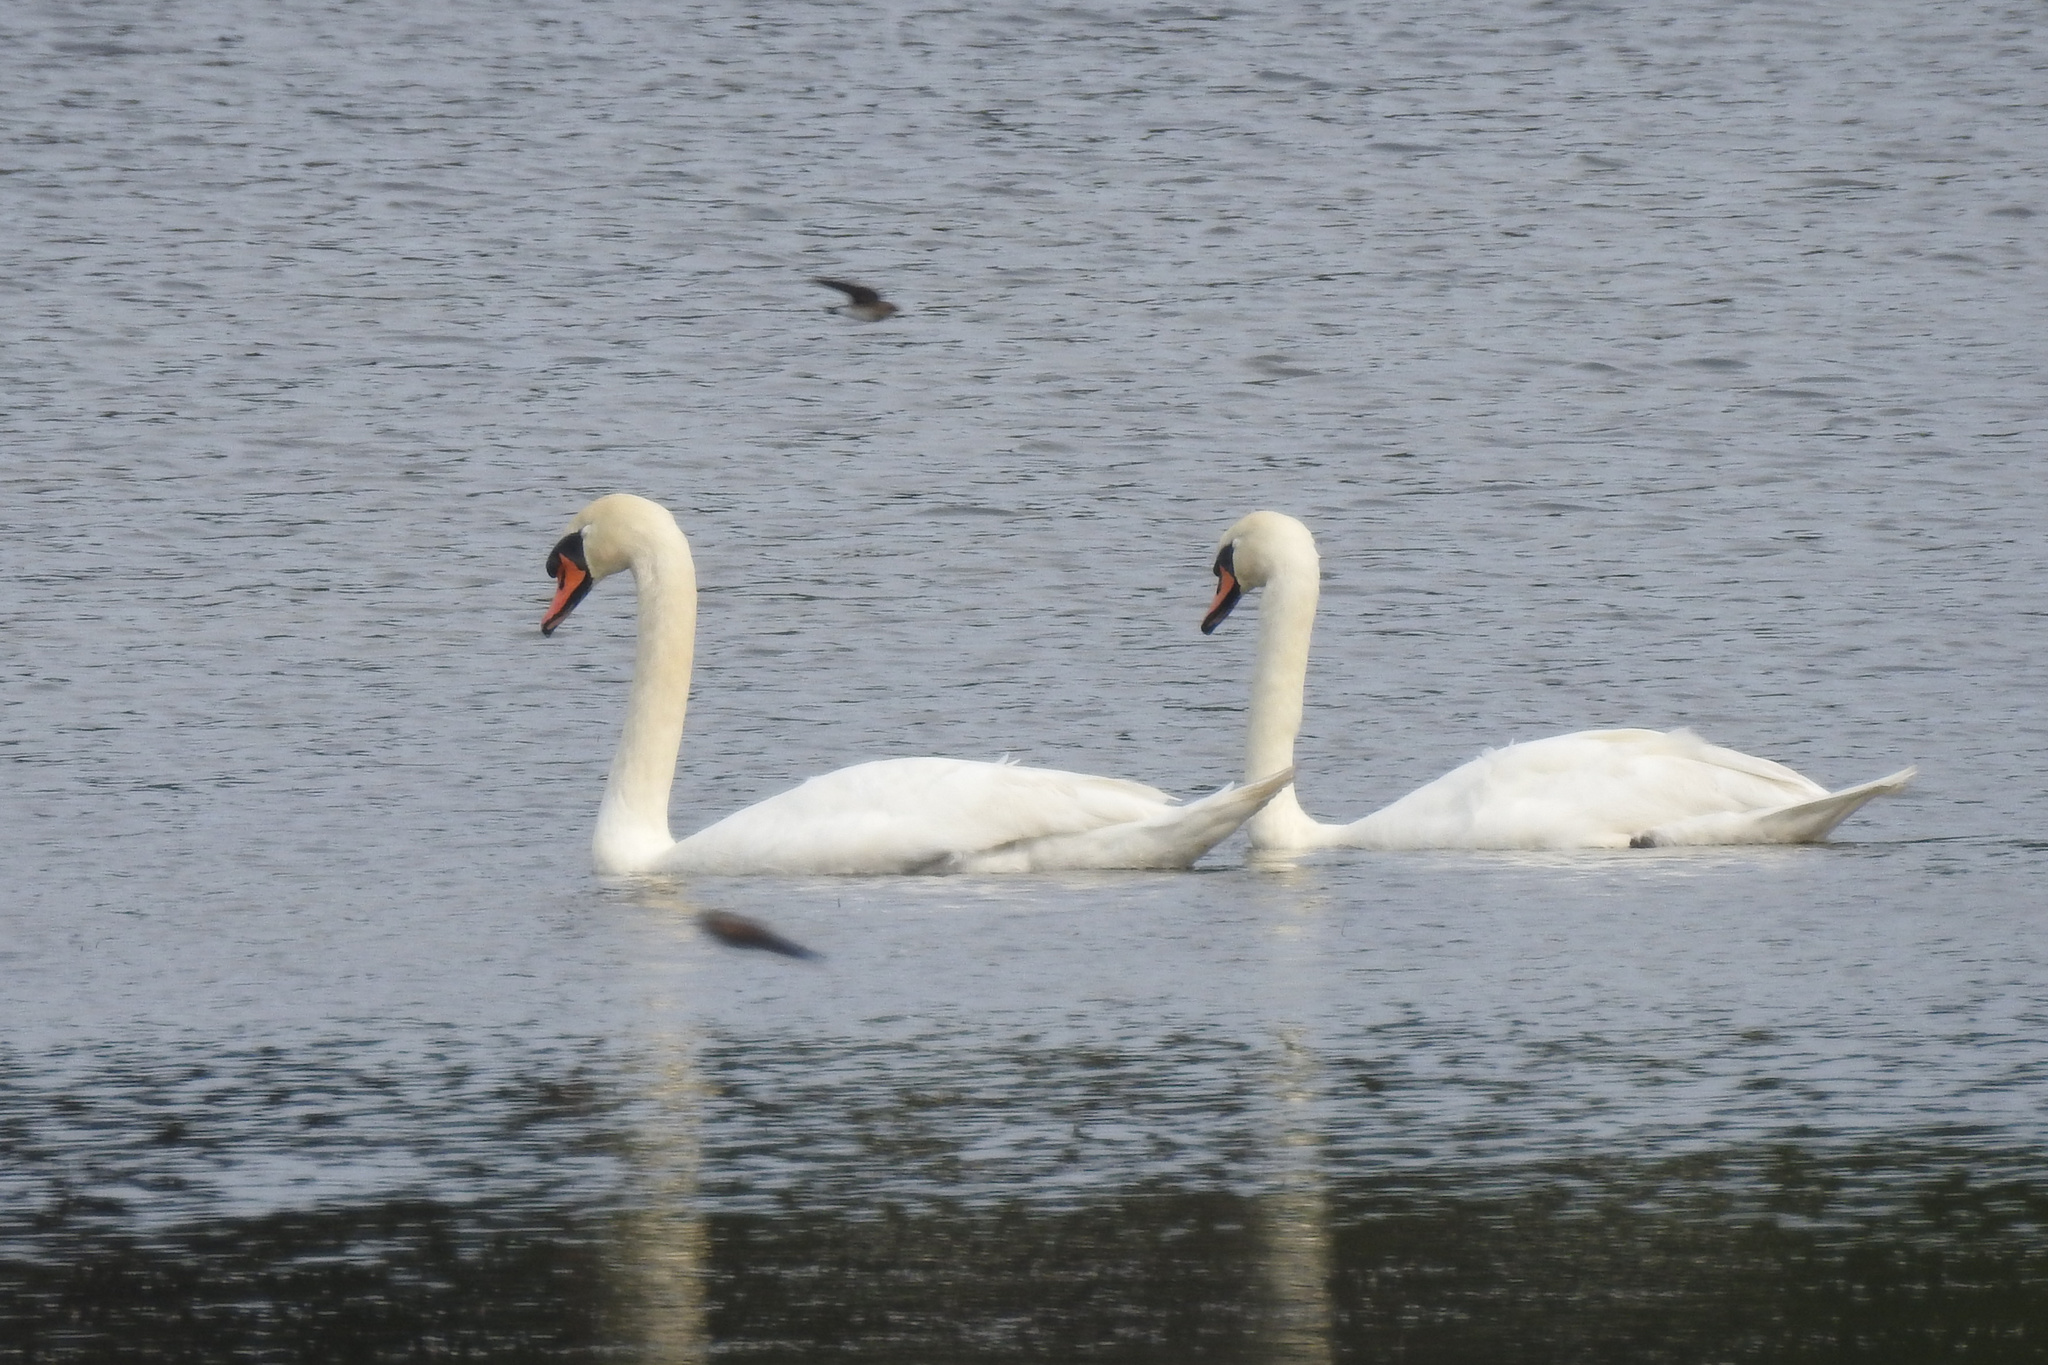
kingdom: Animalia
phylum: Chordata
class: Aves
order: Anseriformes
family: Anatidae
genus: Cygnus
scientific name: Cygnus olor
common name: Mute swan
